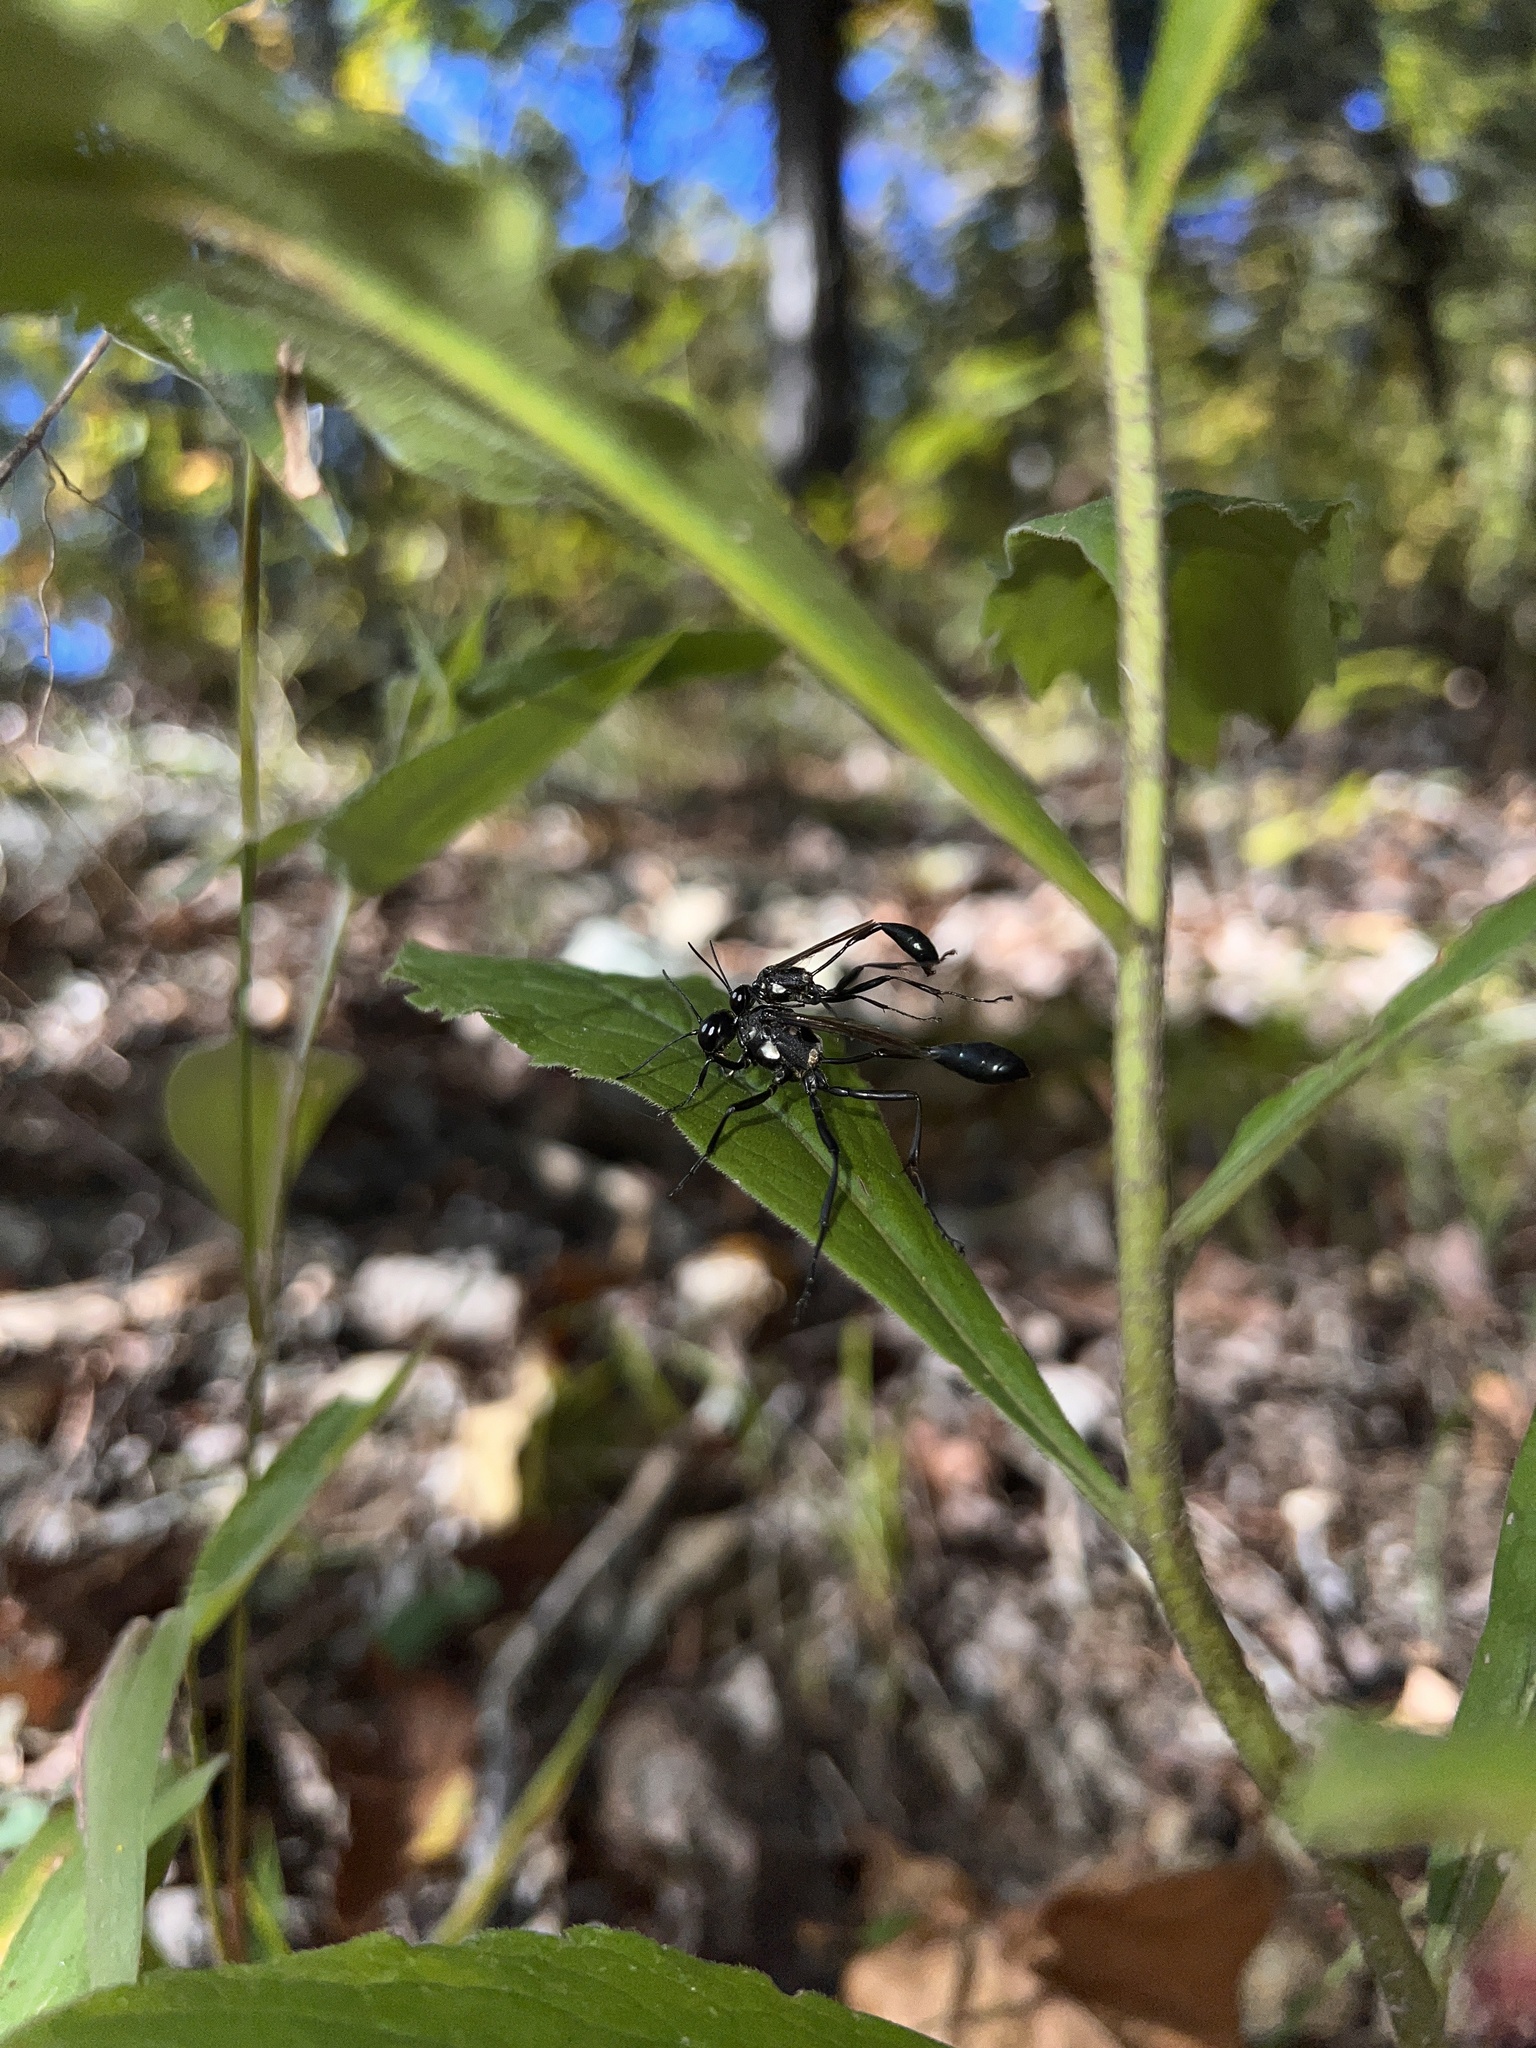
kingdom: Animalia
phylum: Arthropoda
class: Insecta
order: Hymenoptera
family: Sphecidae
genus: Eremnophila
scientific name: Eremnophila aureonotata
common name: Gold-marked thread-waisted wasp
